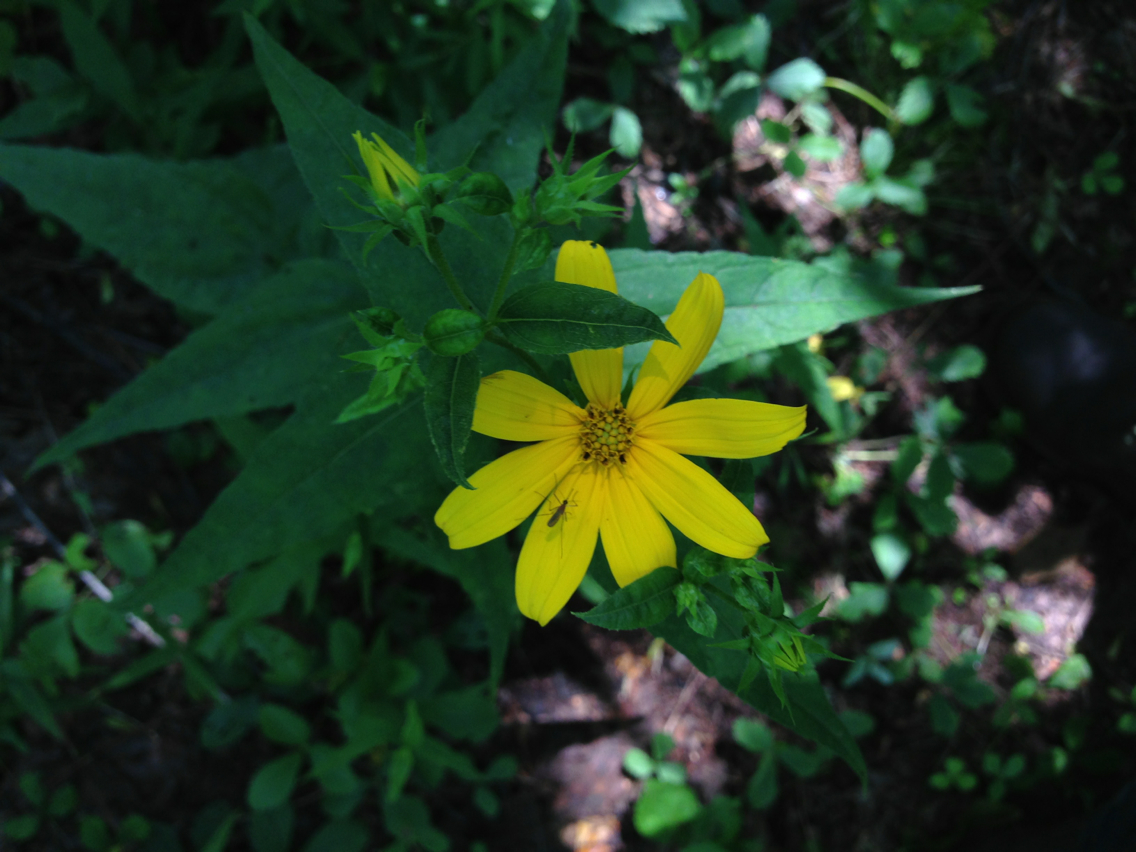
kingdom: Plantae
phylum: Tracheophyta
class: Magnoliopsida
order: Asterales
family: Asteraceae
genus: Helianthus
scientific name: Helianthus divaricatus
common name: Divergent sunflower
